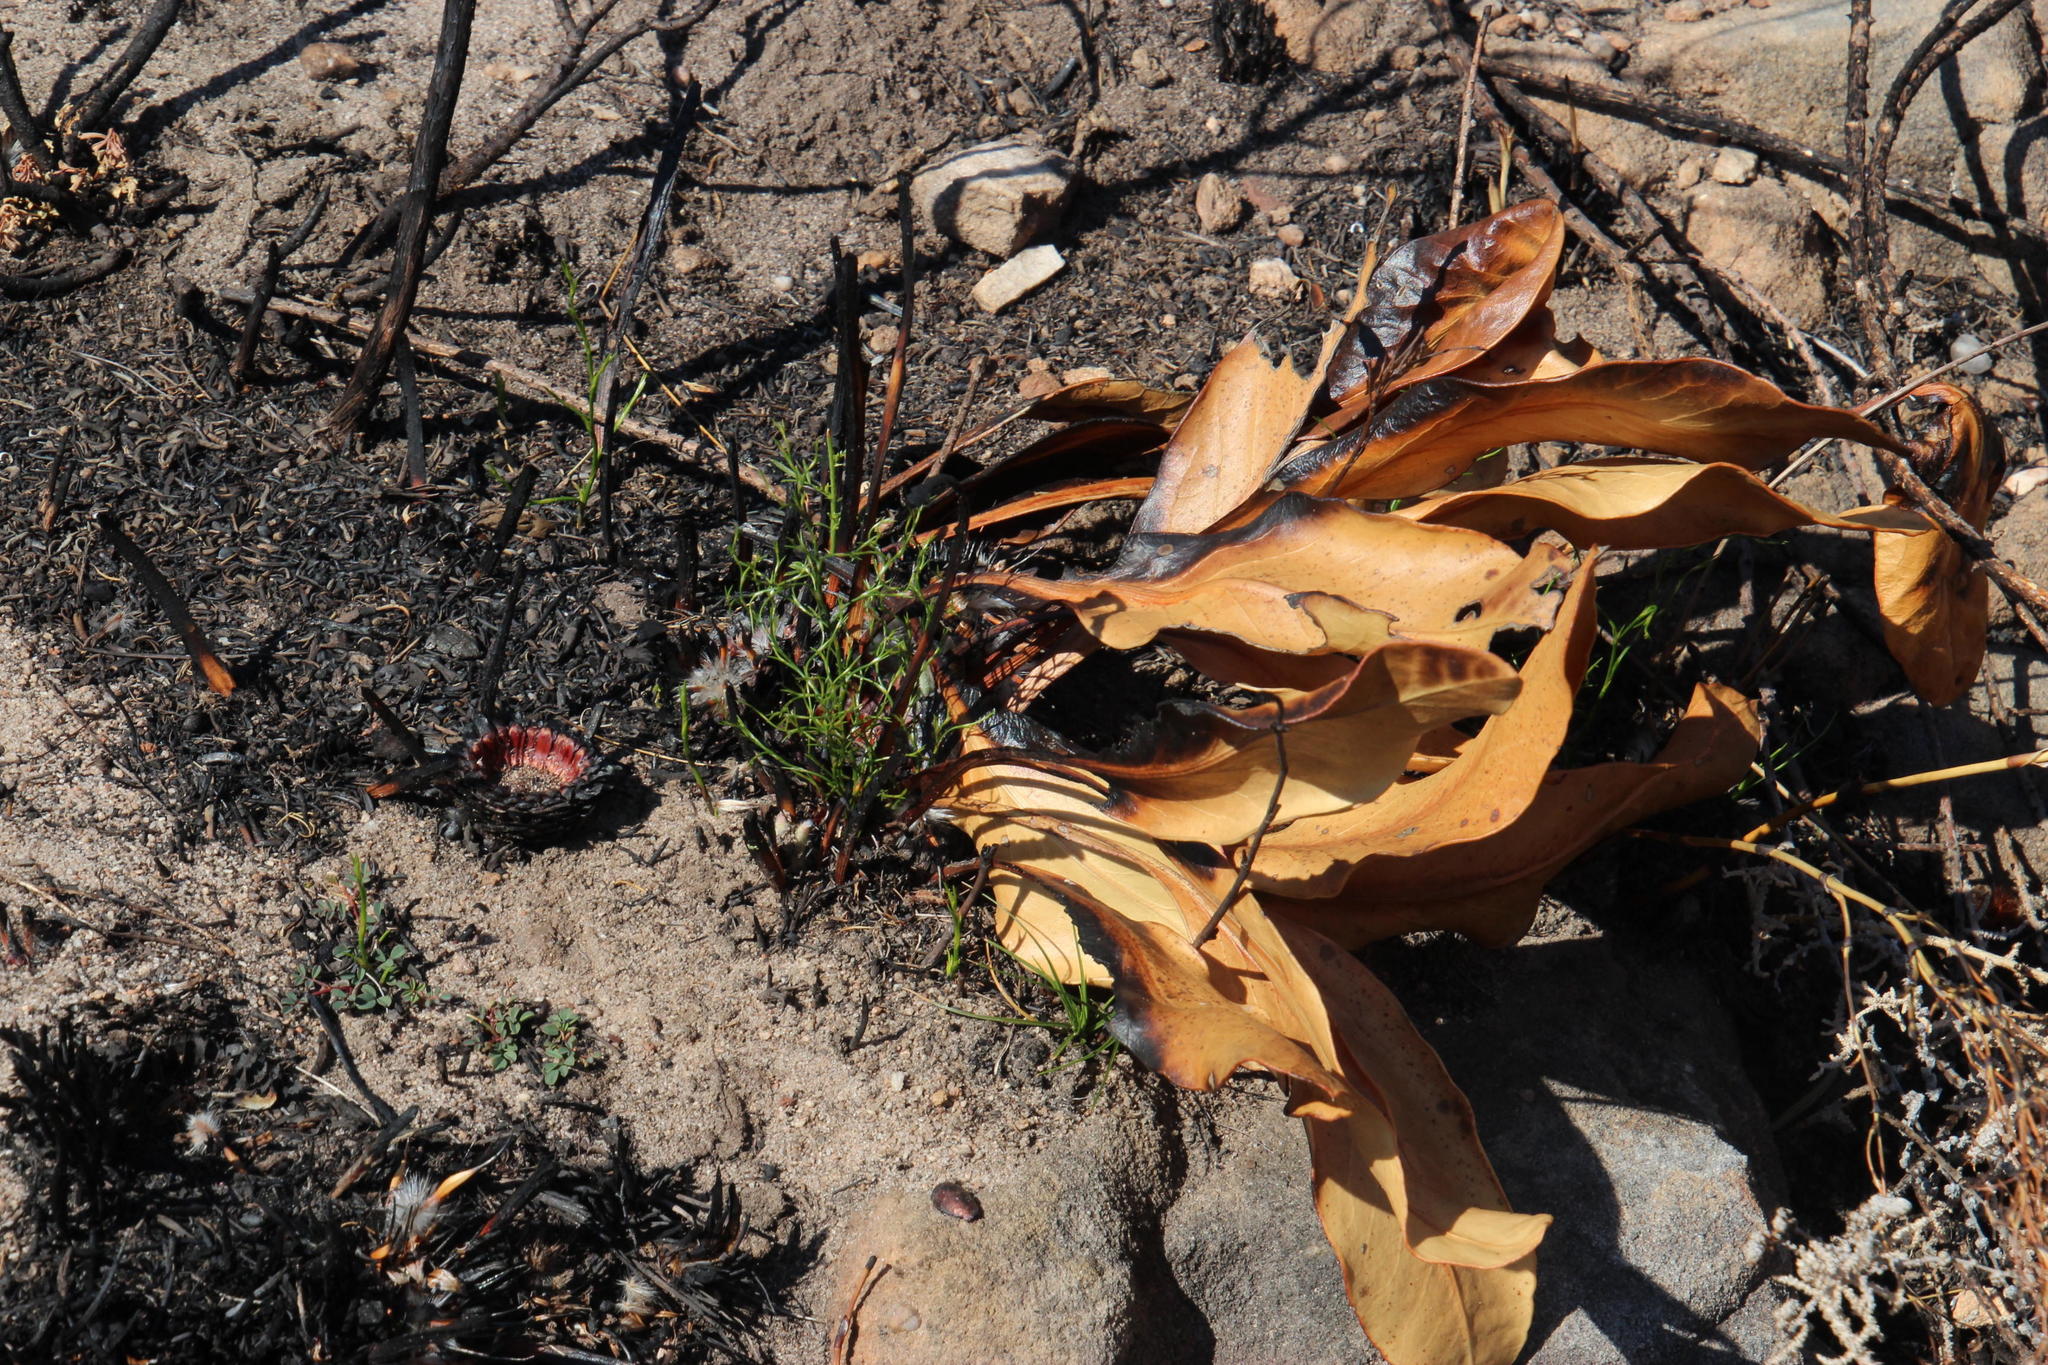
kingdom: Plantae
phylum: Tracheophyta
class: Magnoliopsida
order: Proteales
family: Proteaceae
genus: Protea
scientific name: Protea scolopendriifolia
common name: Harts-tongue-fern sugarbush
